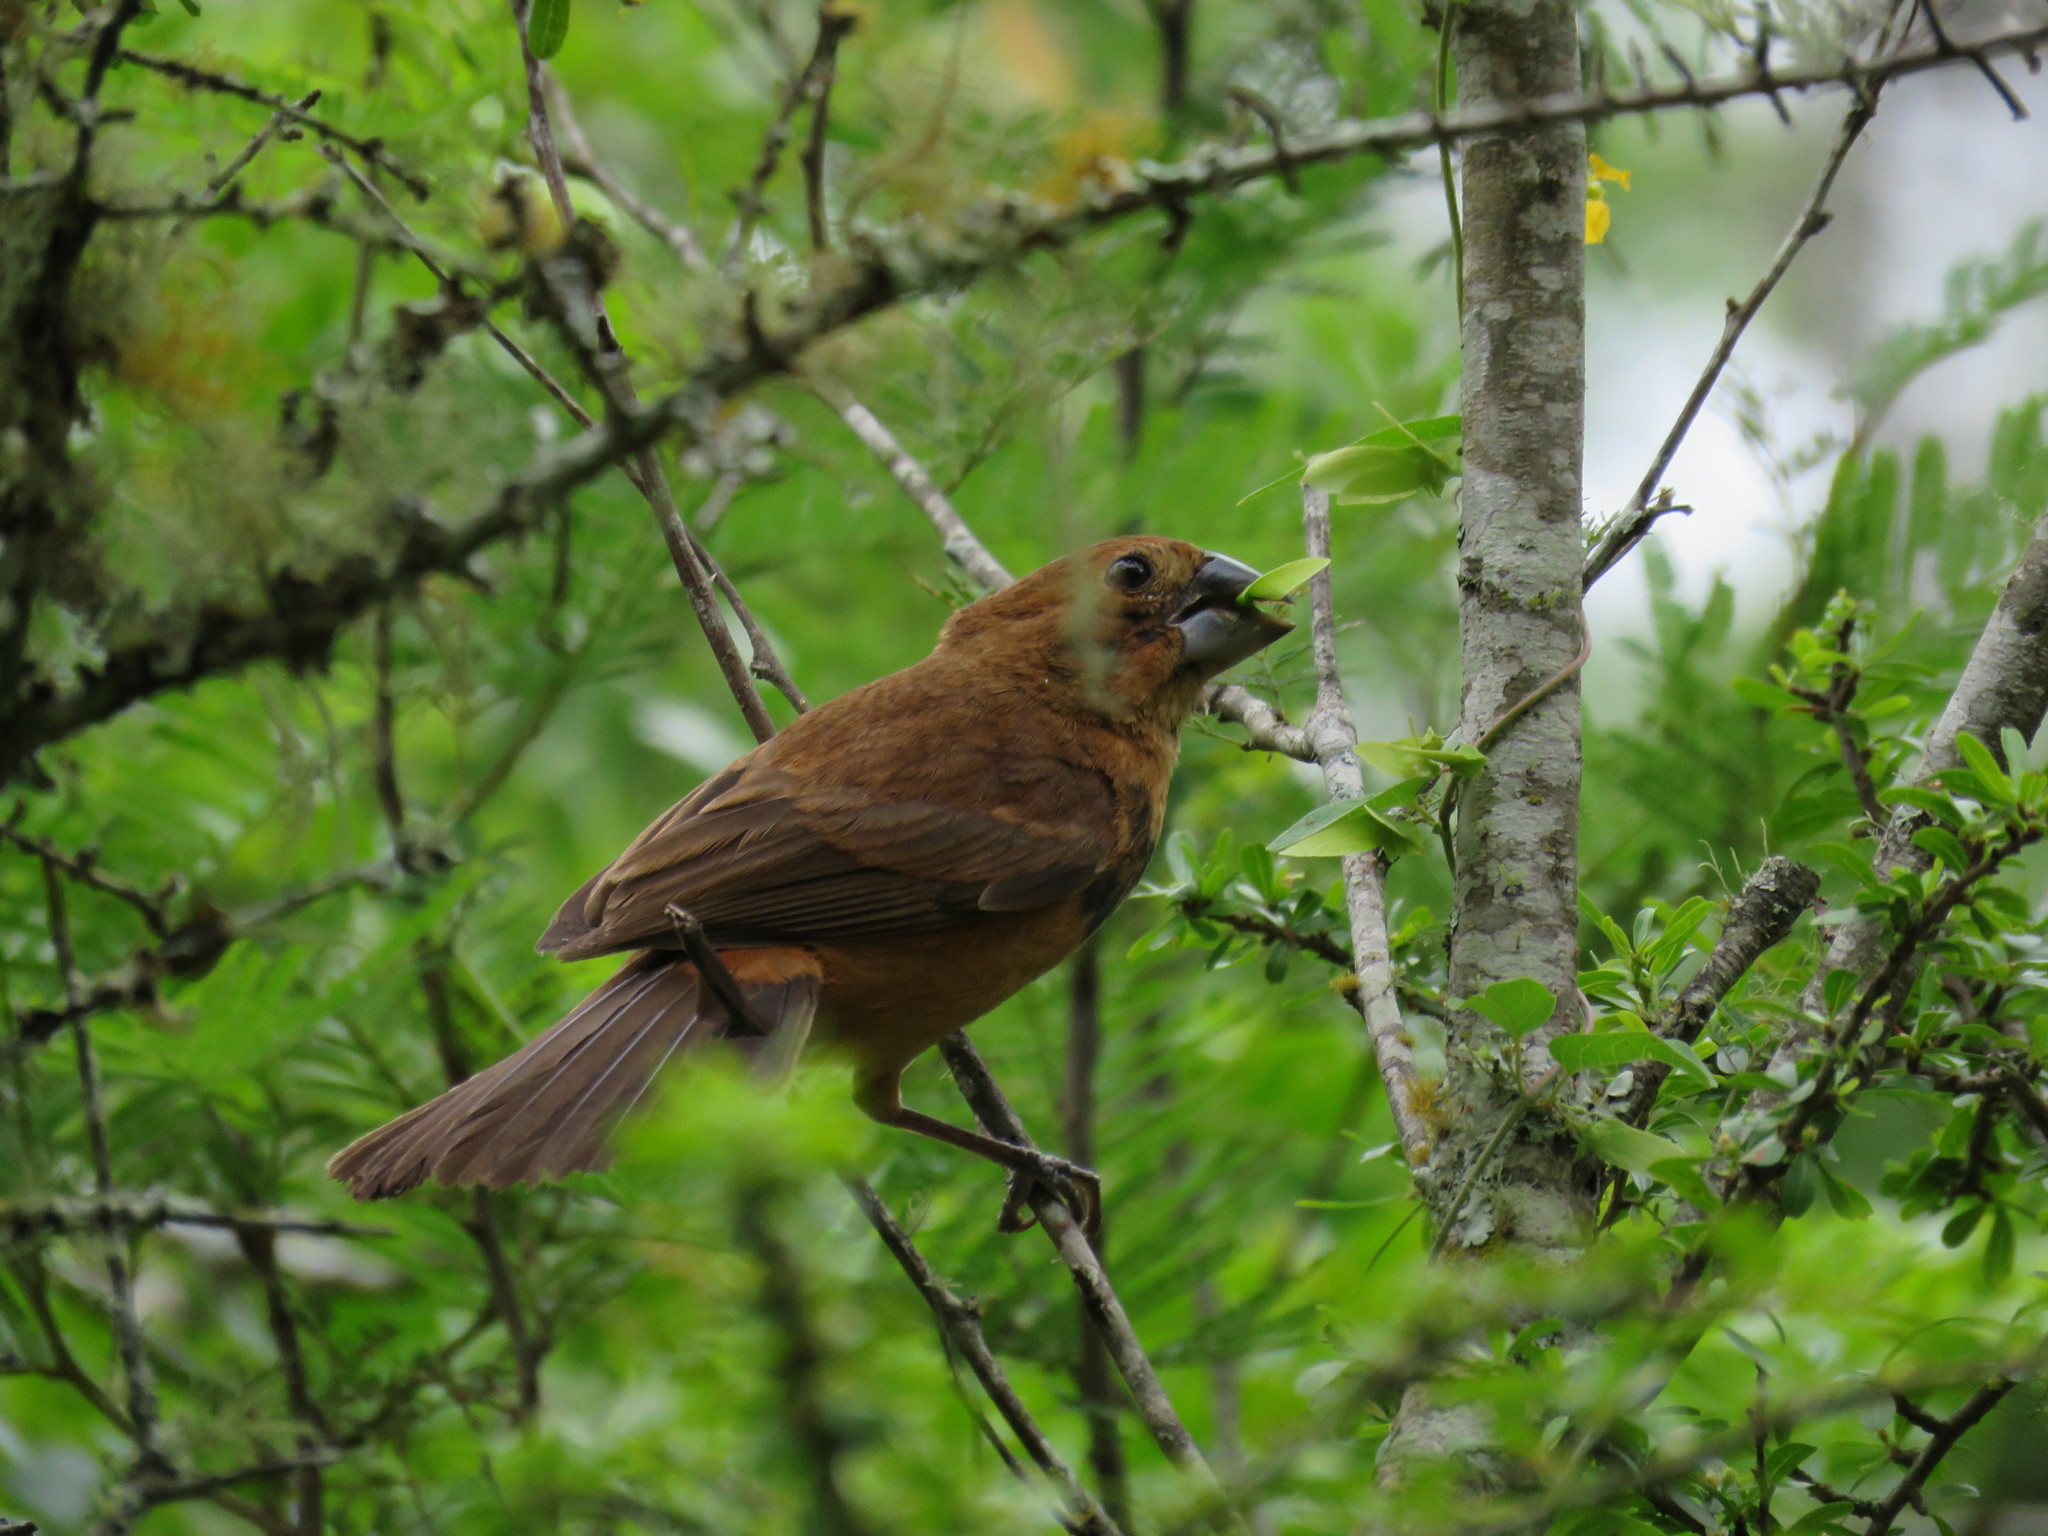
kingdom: Animalia
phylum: Chordata
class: Aves
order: Passeriformes
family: Cardinalidae
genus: Cyanoloxia
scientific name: Cyanoloxia brissonii
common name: Ultramarine grosbeak
